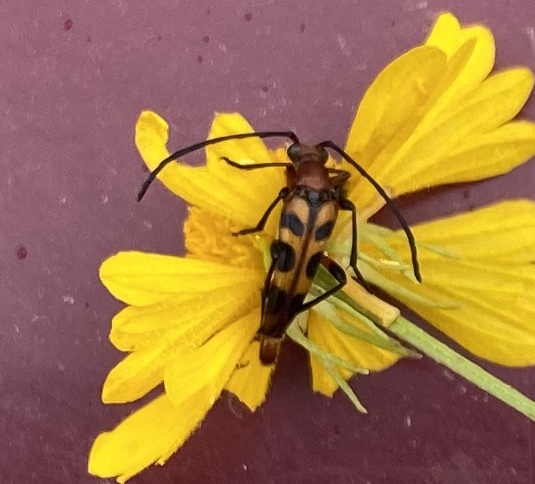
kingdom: Animalia
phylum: Arthropoda
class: Insecta
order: Coleoptera
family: Cerambycidae
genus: Strangalia
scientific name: Strangalia sexnotata
